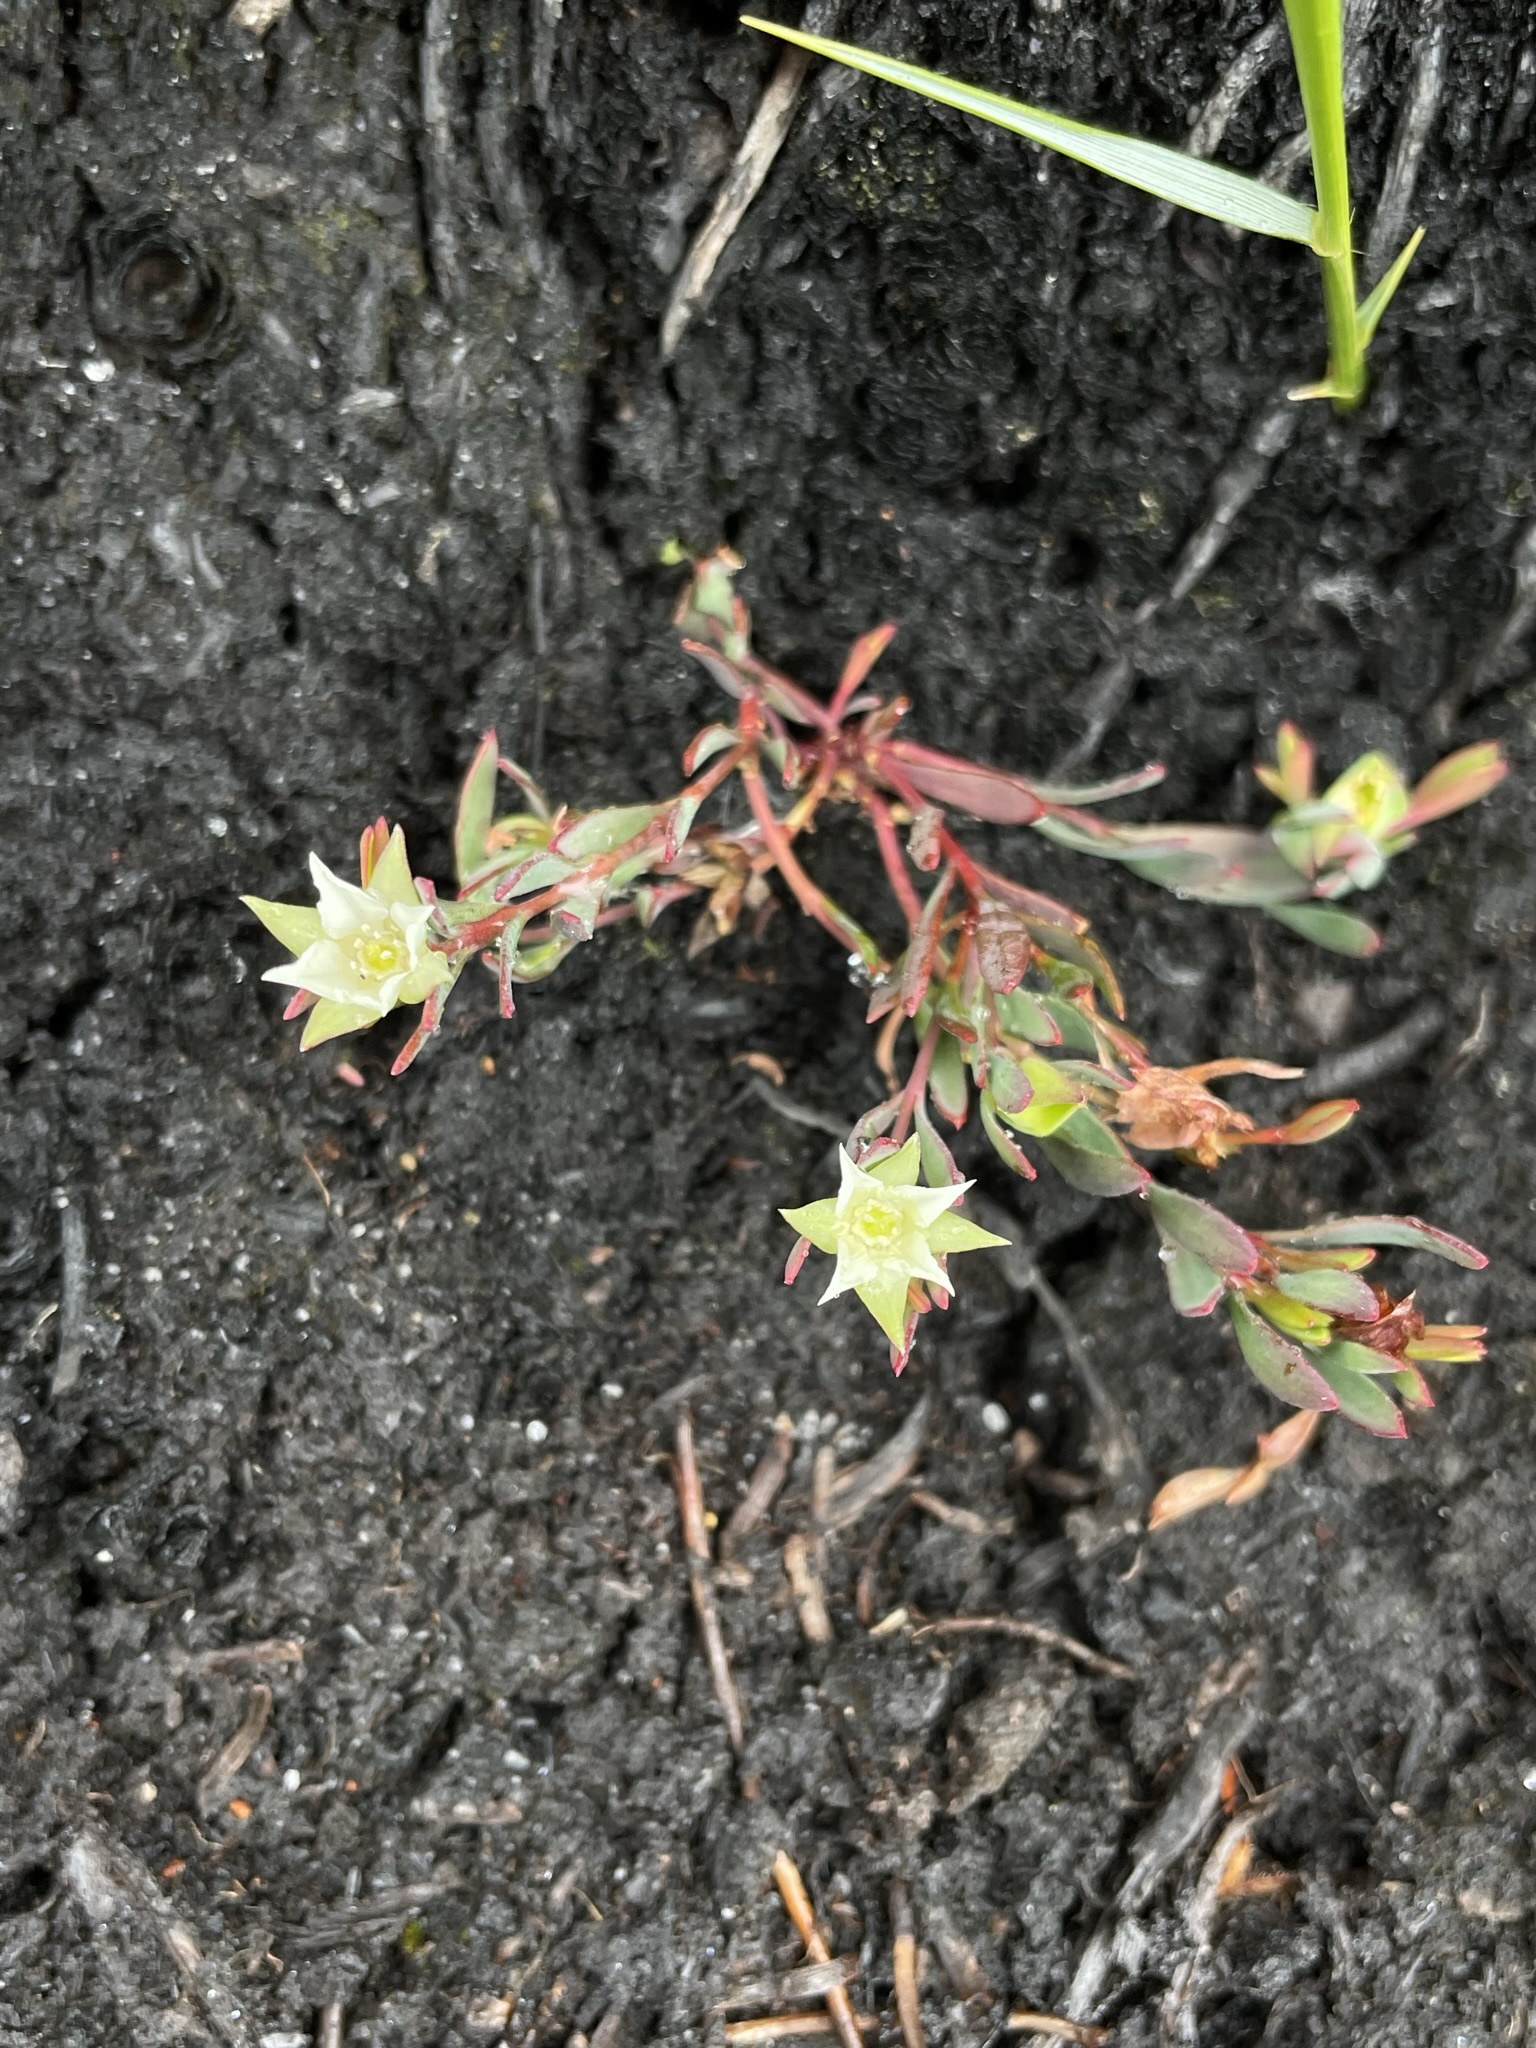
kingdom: Plantae
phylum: Tracheophyta
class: Magnoliopsida
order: Sapindales
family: Rutaceae
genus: Boronia
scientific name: Boronia parviflora
